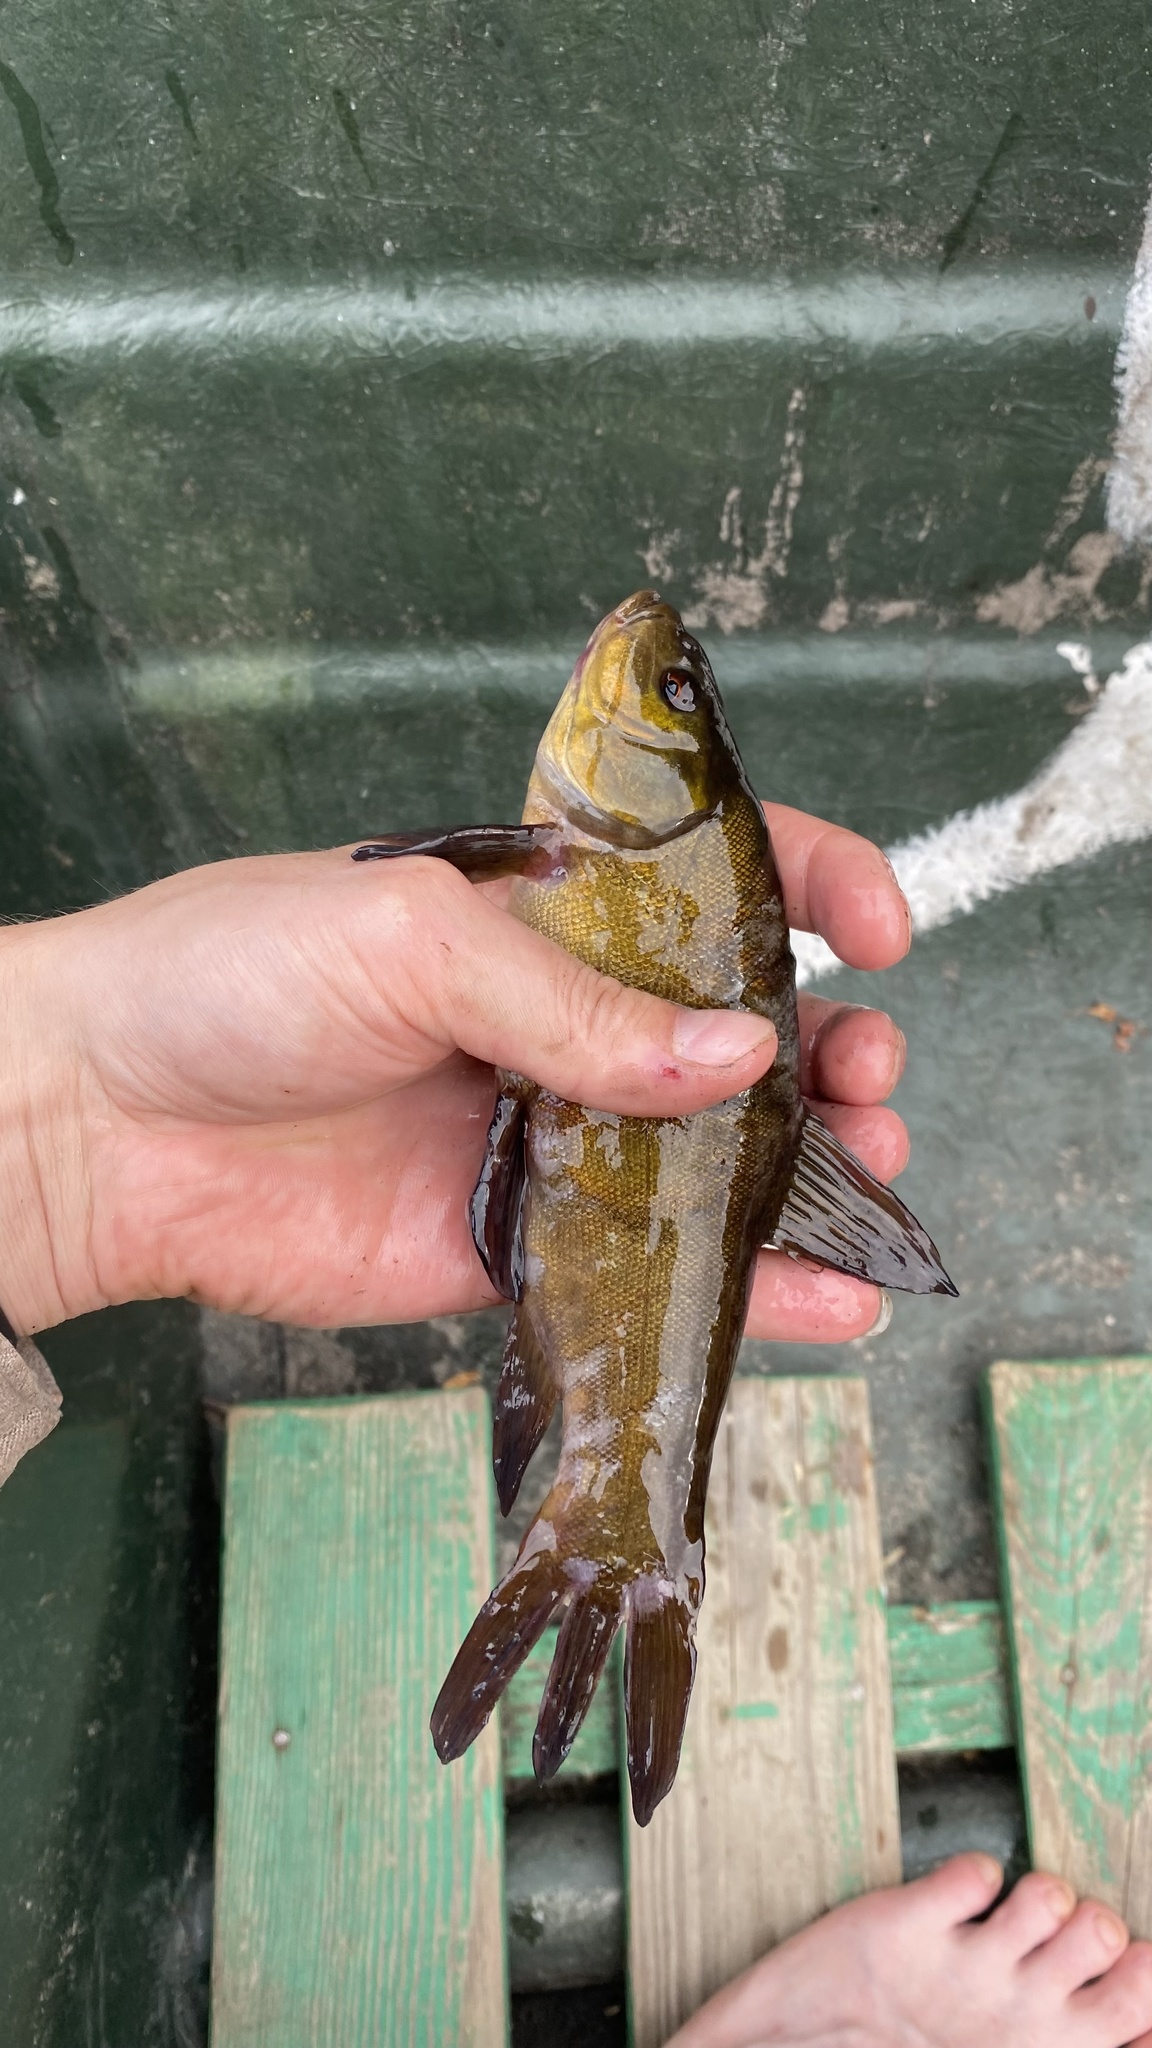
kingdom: Animalia
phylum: Chordata
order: Cypriniformes
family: Cyprinidae
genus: Tinca
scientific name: Tinca tinca
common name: Tench
